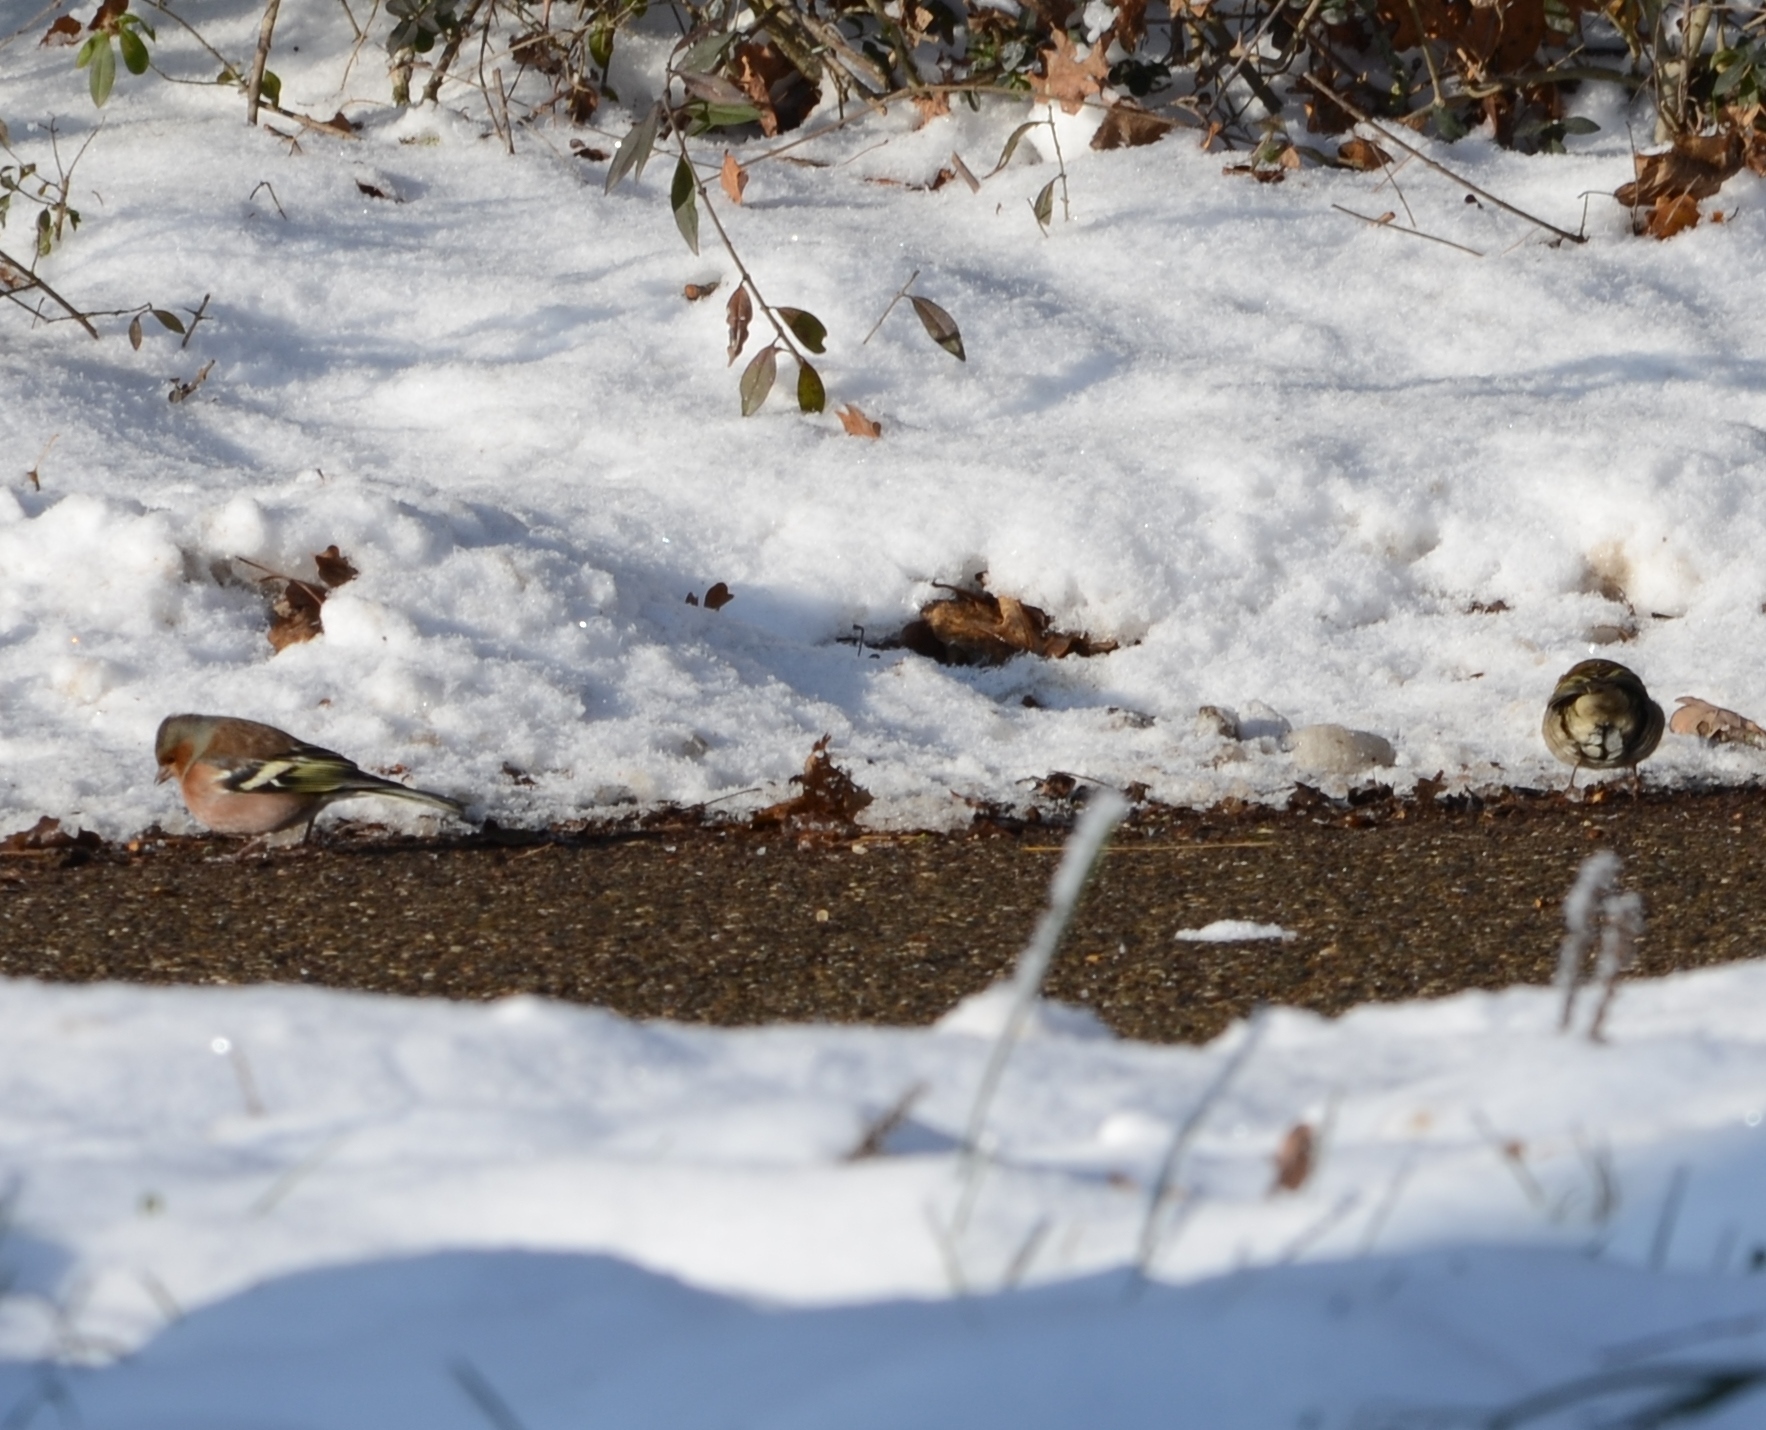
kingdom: Animalia
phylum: Chordata
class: Aves
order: Passeriformes
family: Fringillidae
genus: Fringilla
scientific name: Fringilla coelebs
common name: Common chaffinch
